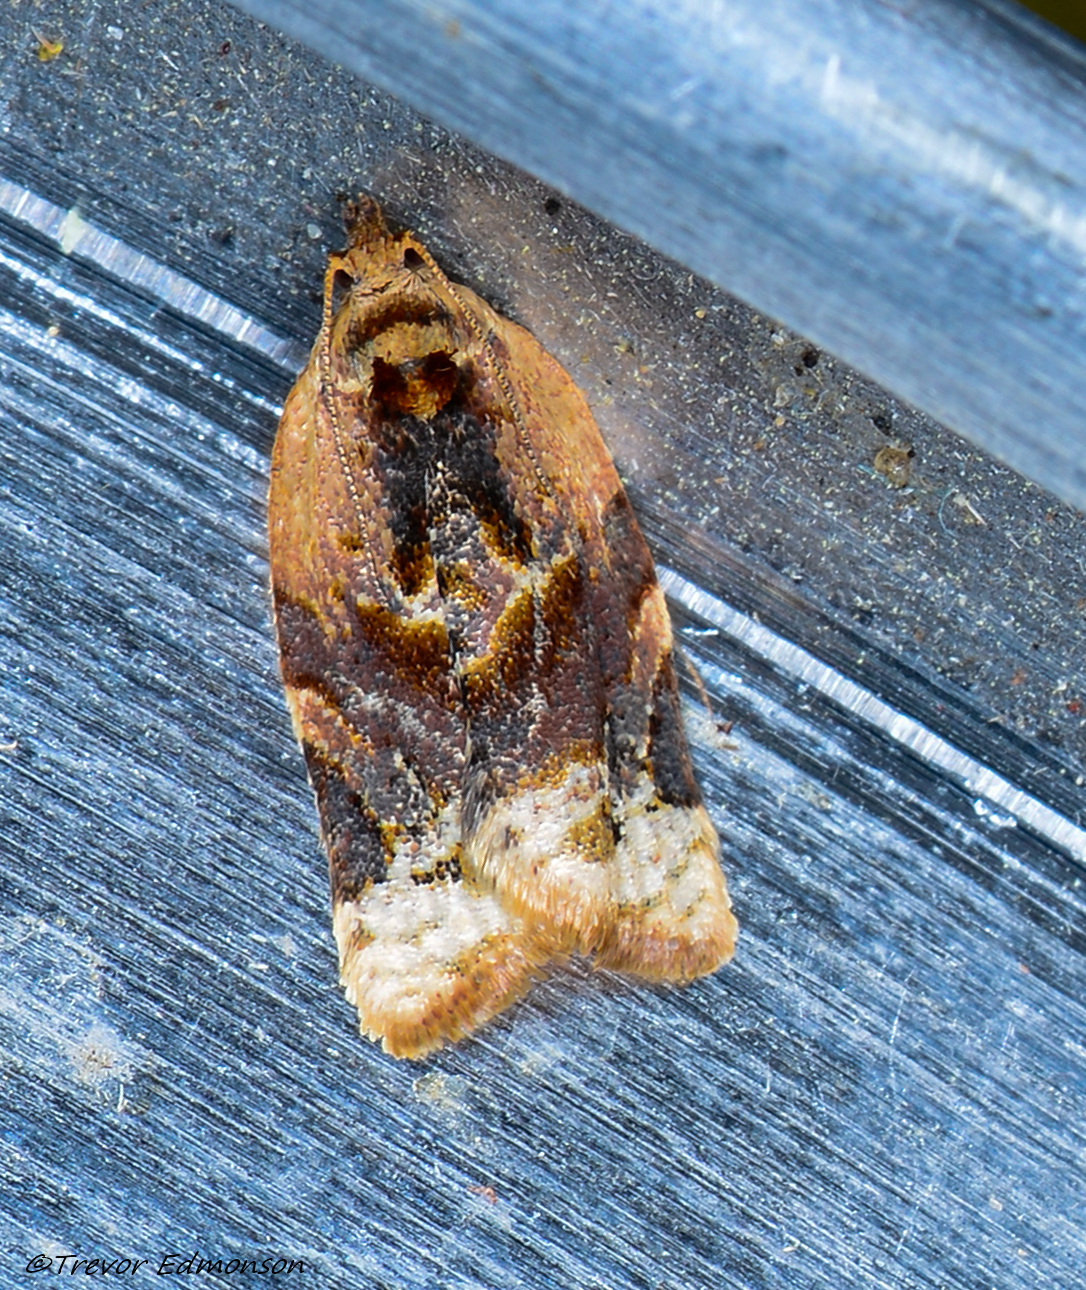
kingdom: Animalia
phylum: Arthropoda
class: Insecta
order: Lepidoptera
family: Tortricidae
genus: Argyrotaenia
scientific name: Argyrotaenia velutinana
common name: Red-banded leafroller moth
